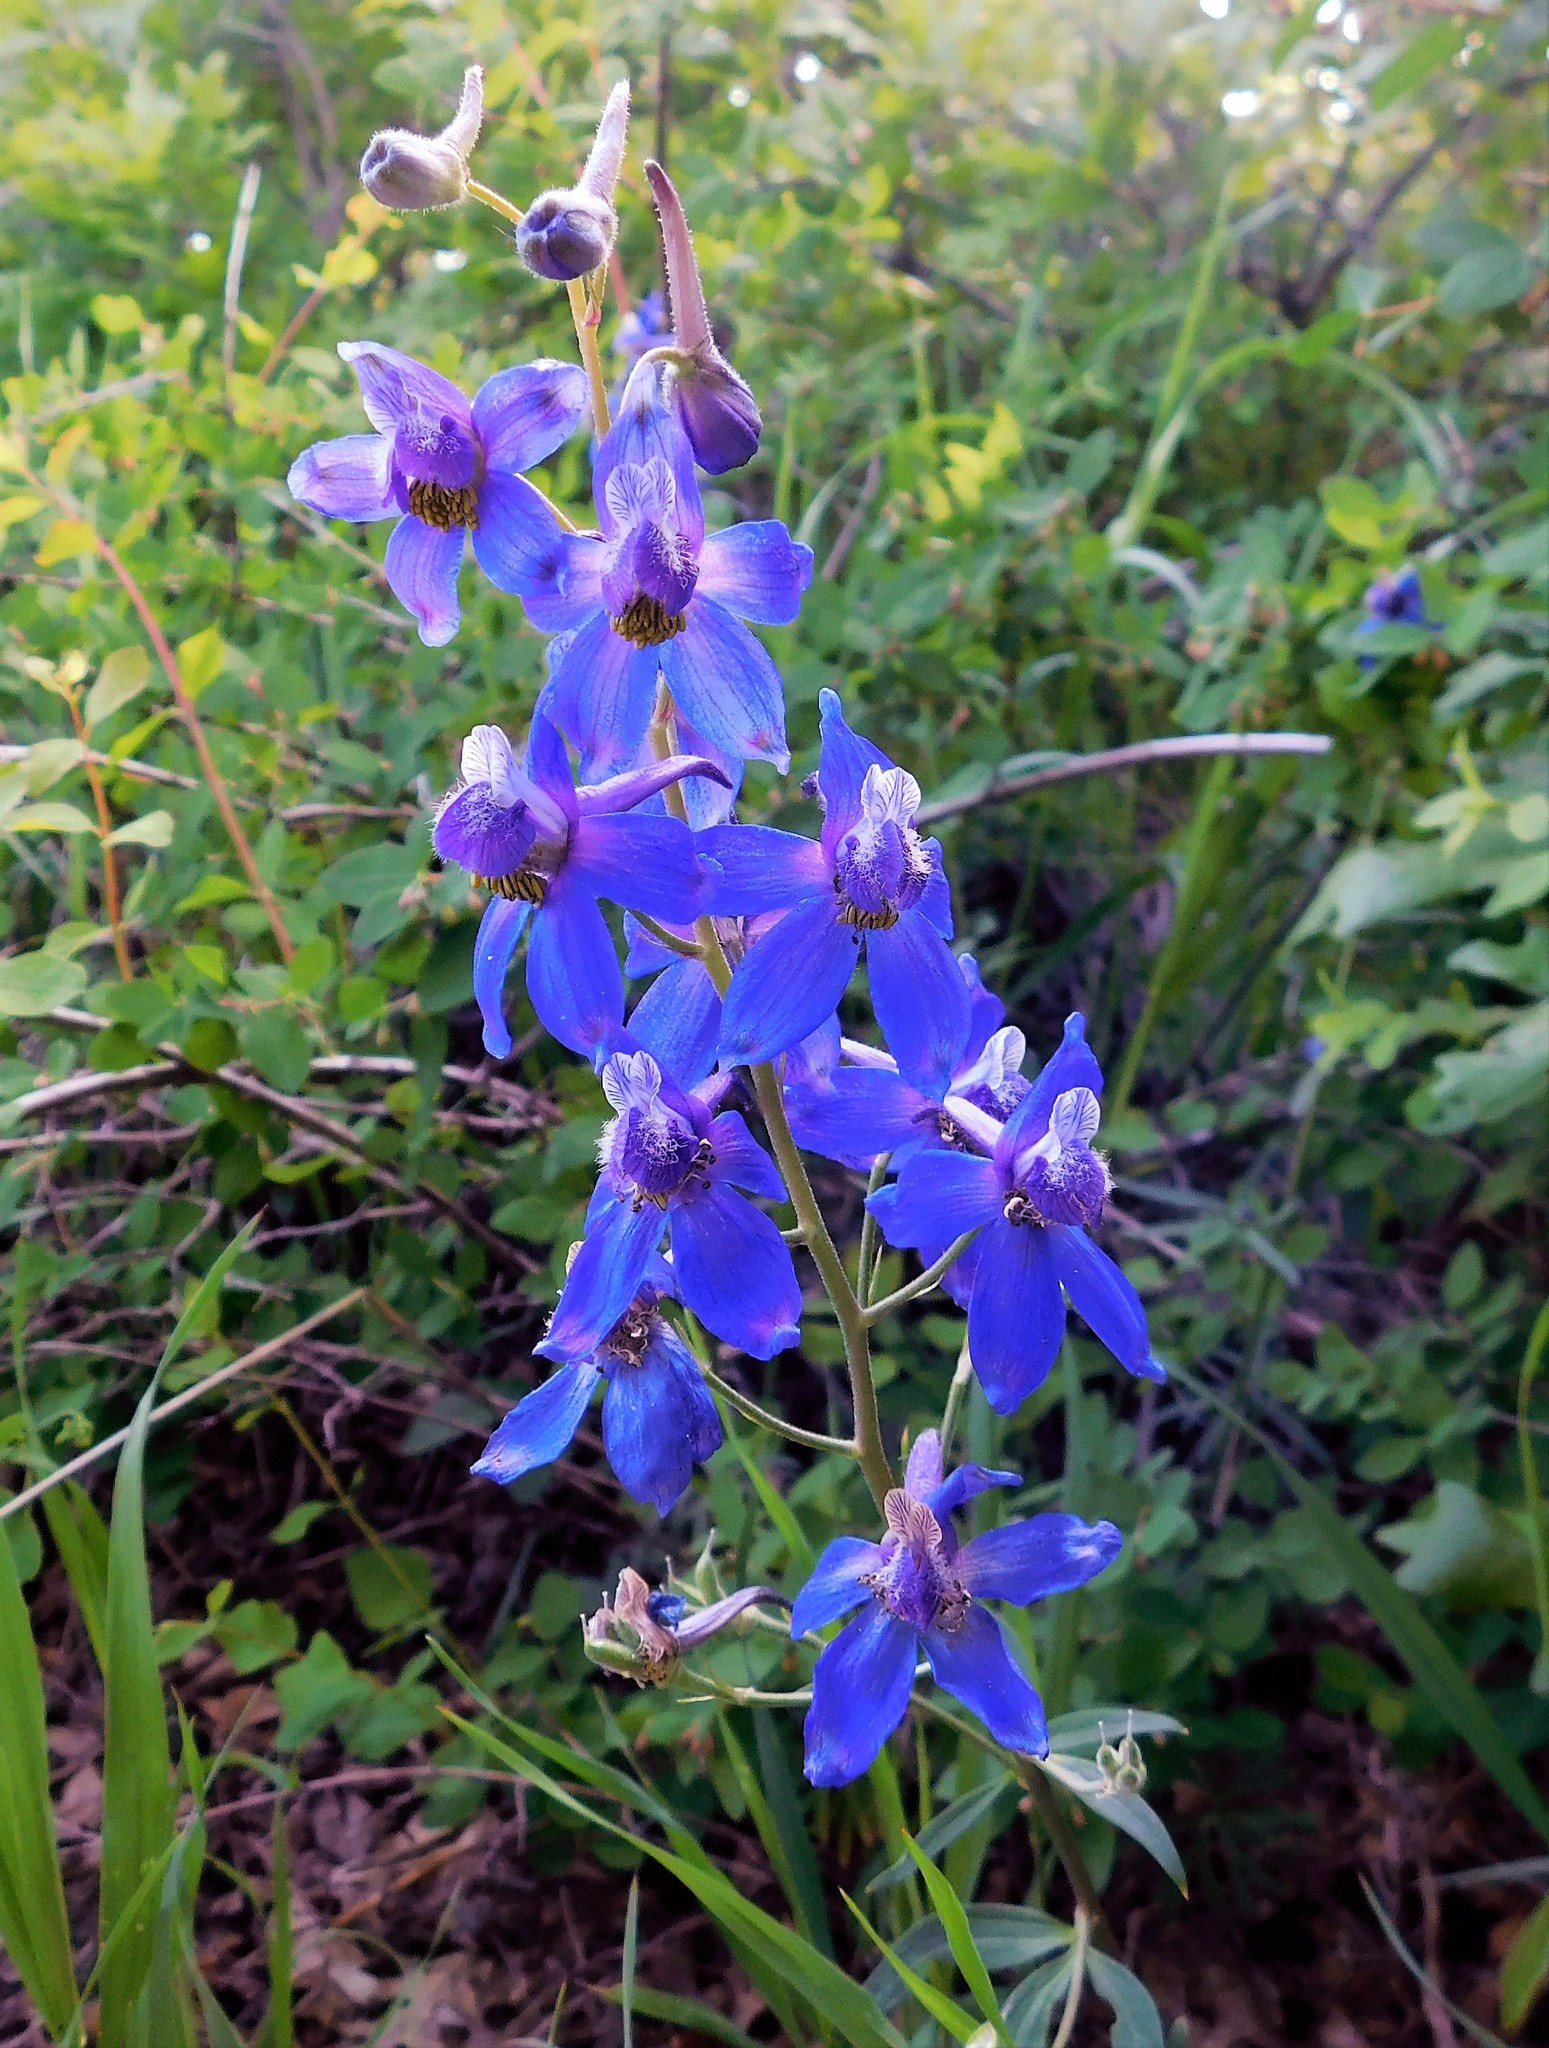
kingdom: Plantae
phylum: Tracheophyta
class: Magnoliopsida
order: Ranunculales
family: Ranunculaceae
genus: Delphinium
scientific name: Delphinium nuttallianum
